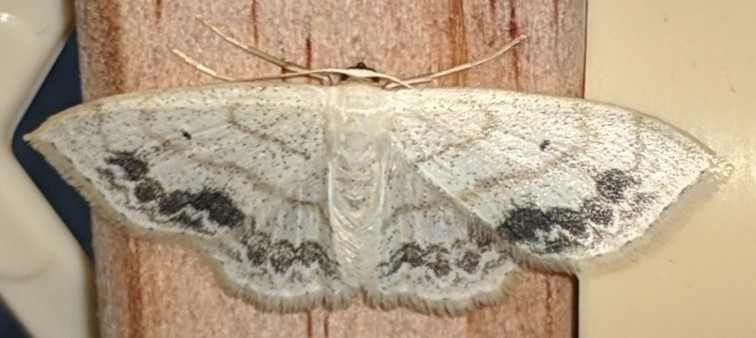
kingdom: Animalia
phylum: Arthropoda
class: Insecta
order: Lepidoptera
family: Geometridae
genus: Scopula
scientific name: Scopula limboundata
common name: Large lace border
